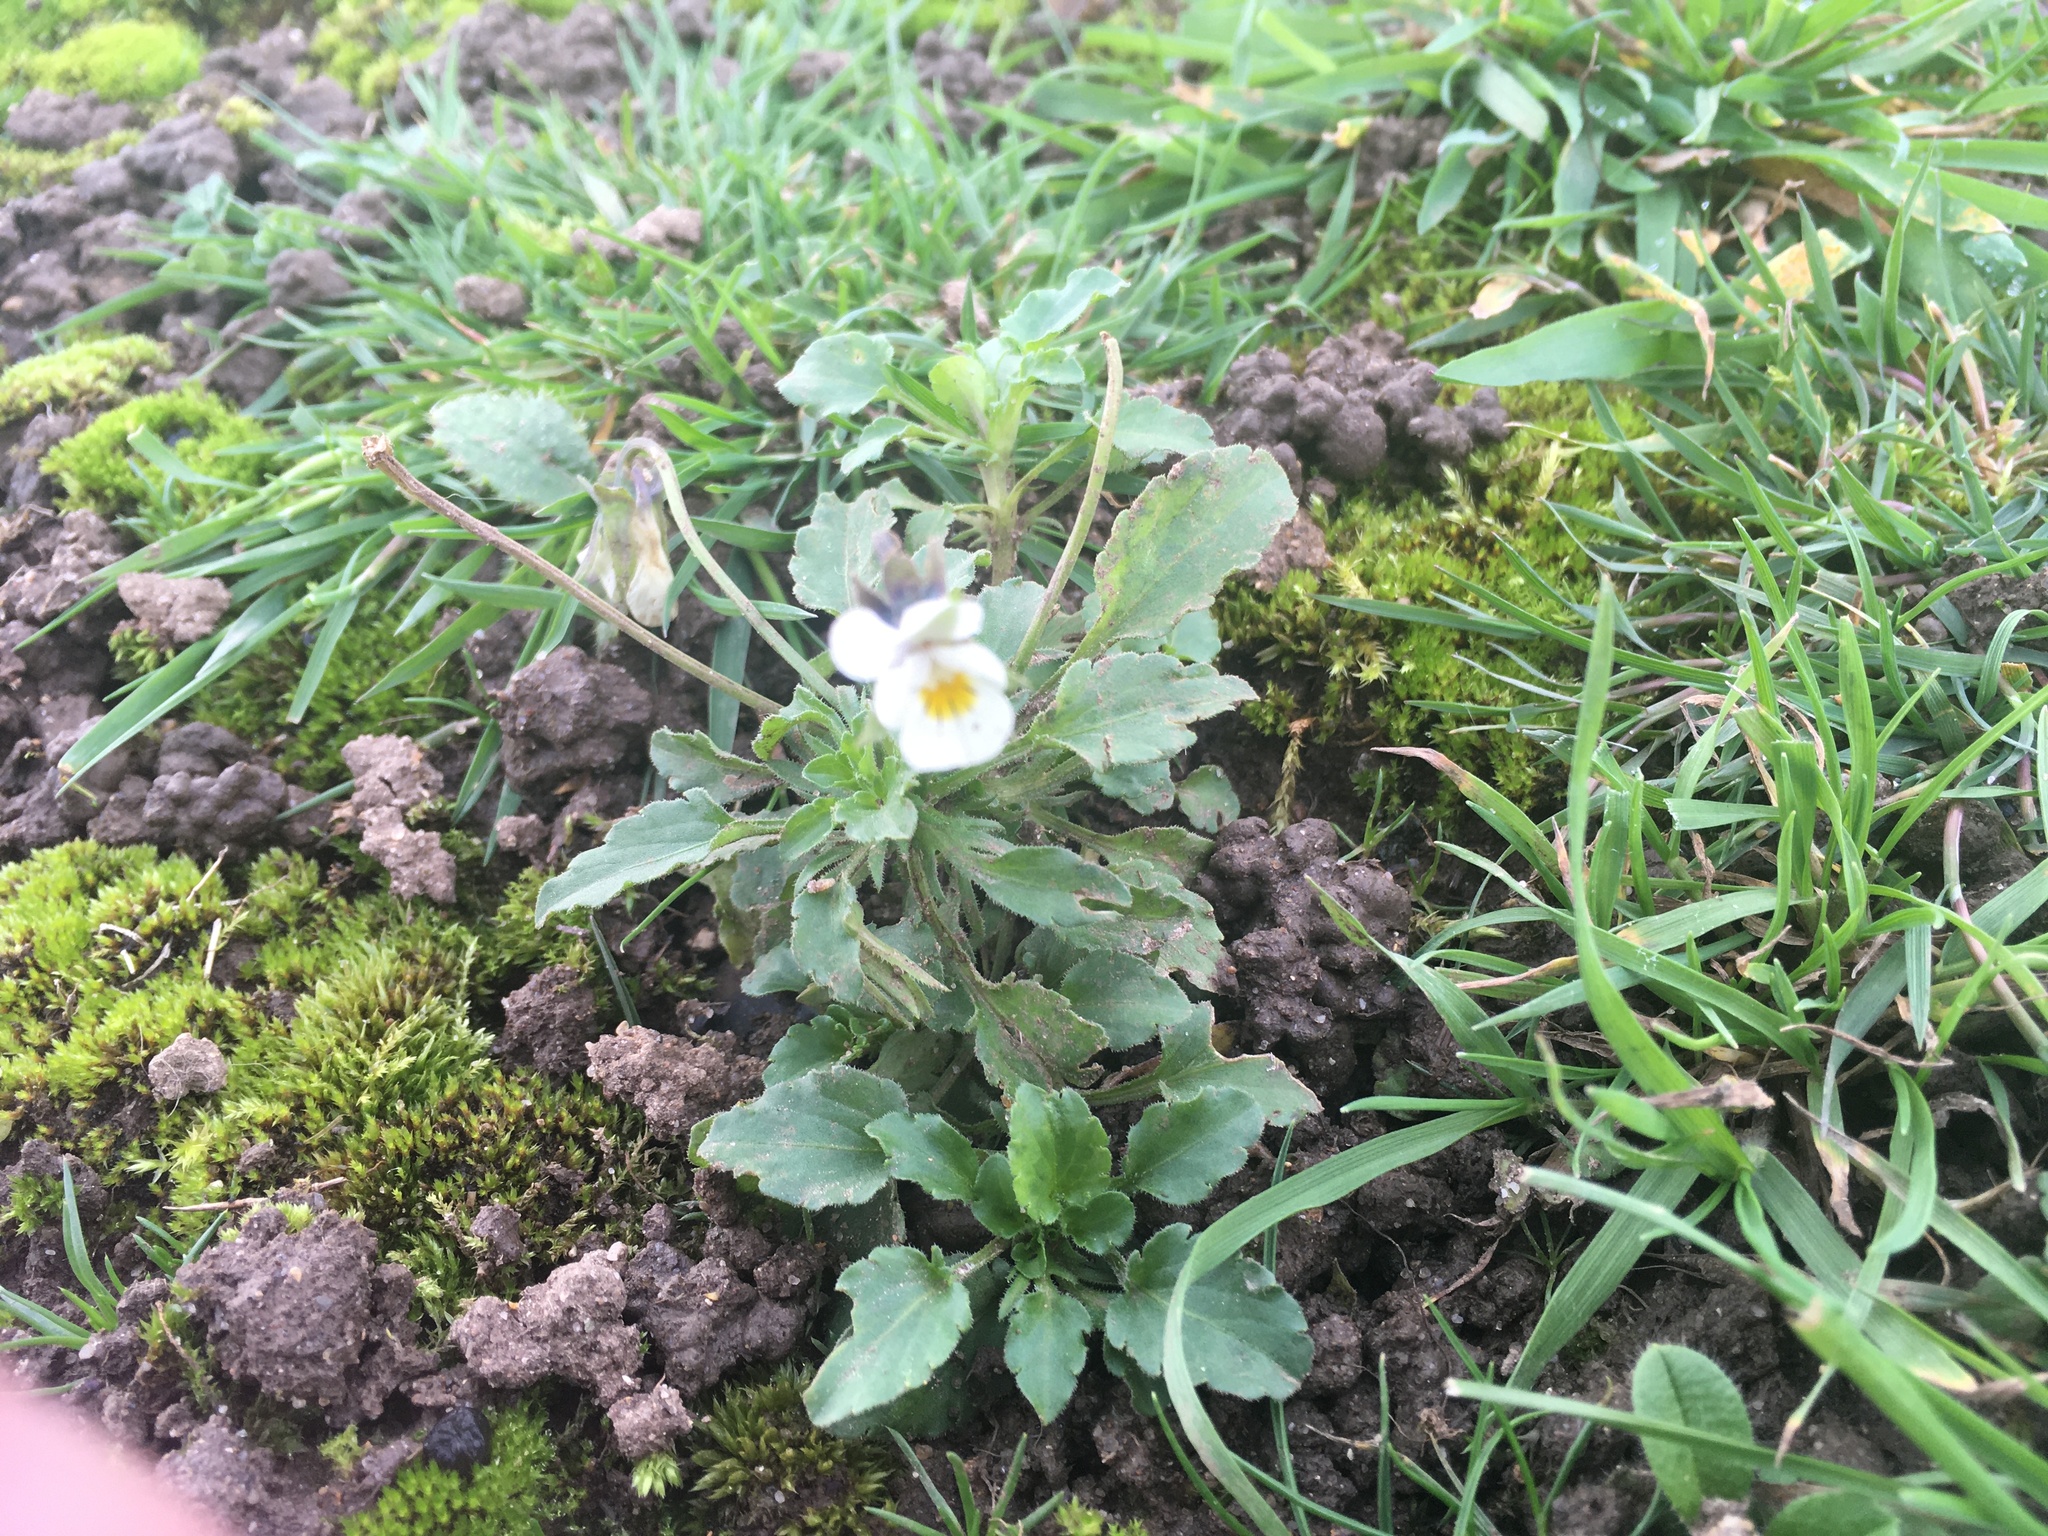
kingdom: Plantae
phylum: Tracheophyta
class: Magnoliopsida
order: Malpighiales
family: Violaceae
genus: Viola
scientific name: Viola arvensis
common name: Field pansy
